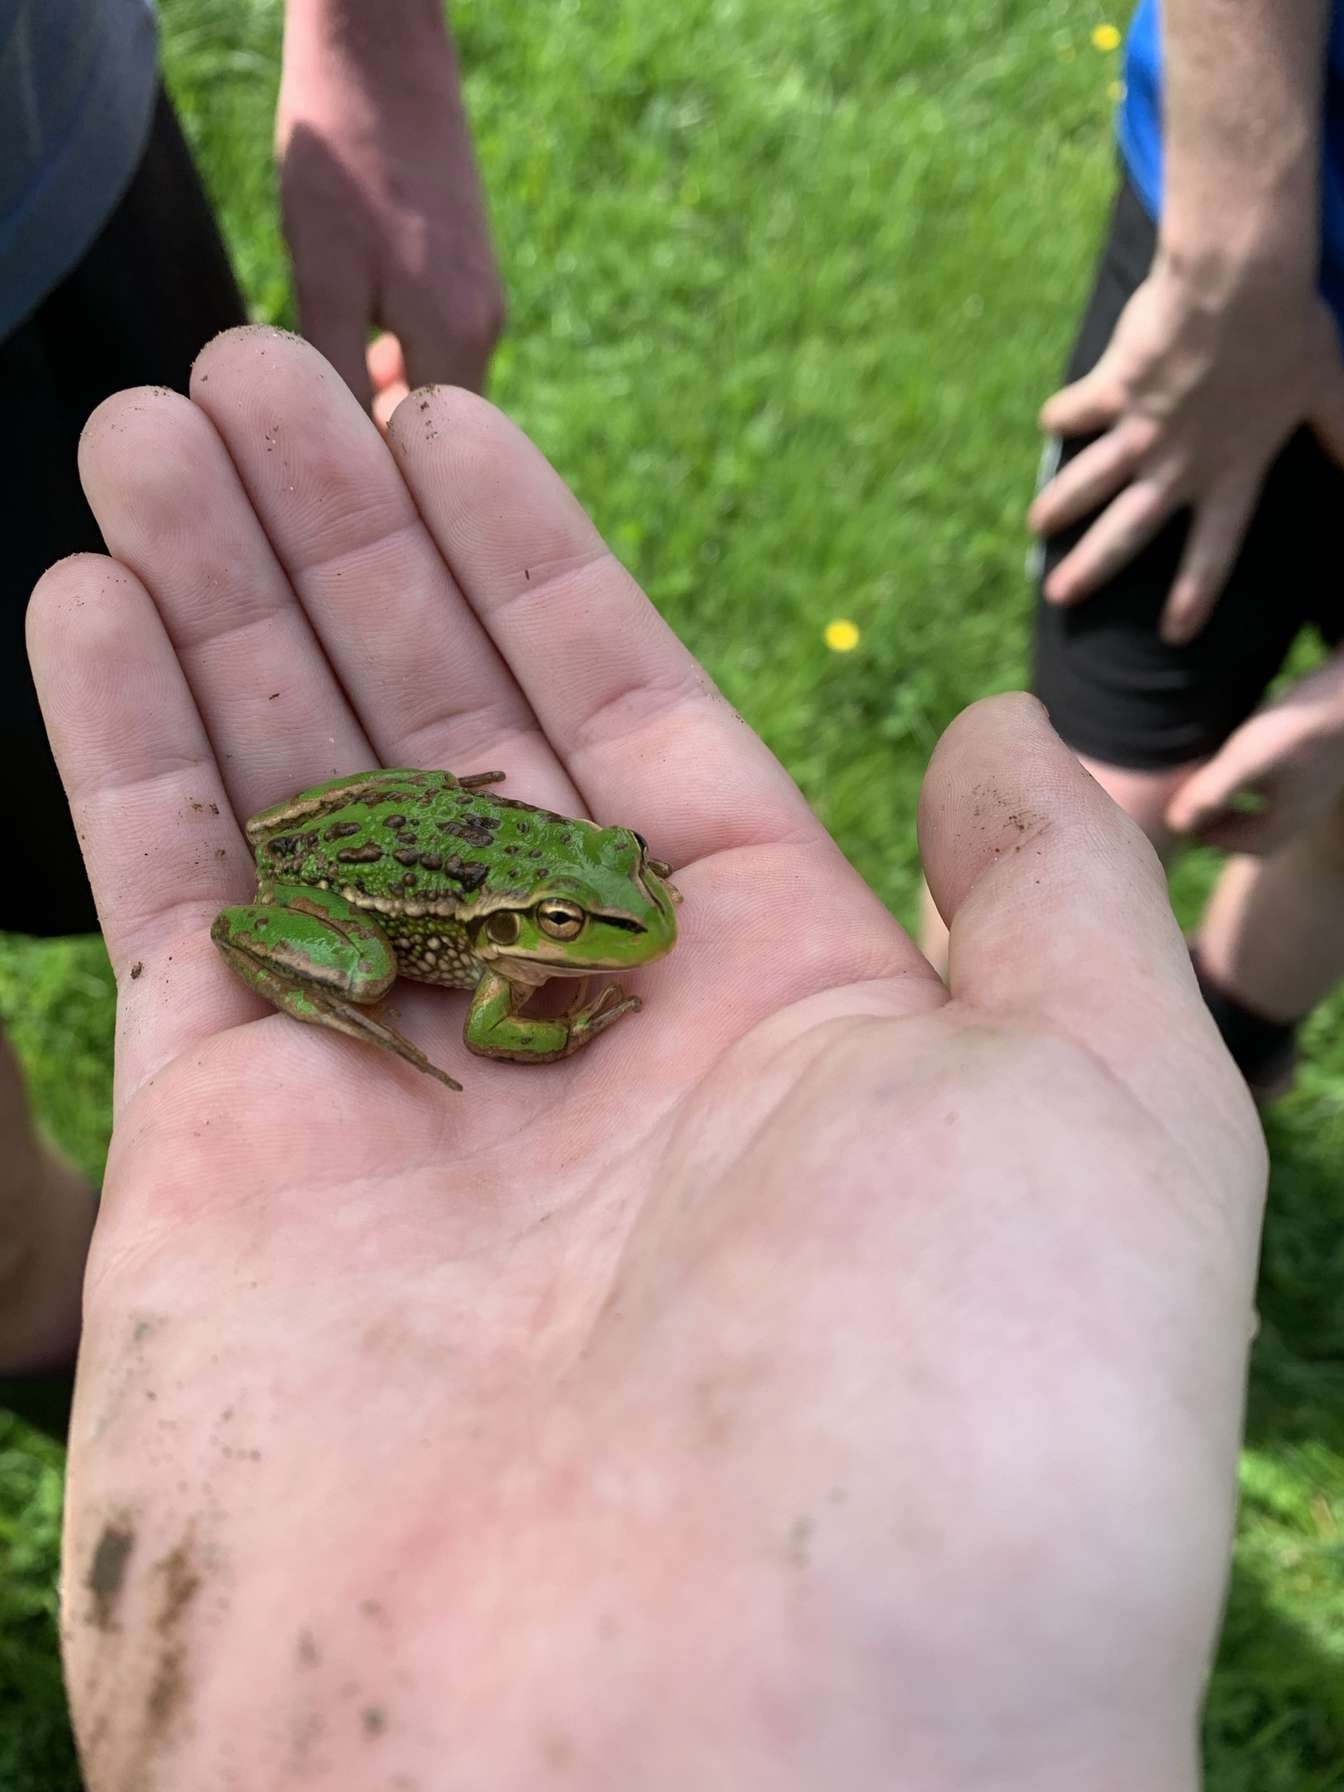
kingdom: Animalia
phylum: Chordata
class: Amphibia
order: Anura
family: Pelodryadidae
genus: Ranoidea
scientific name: Ranoidea raniformis
